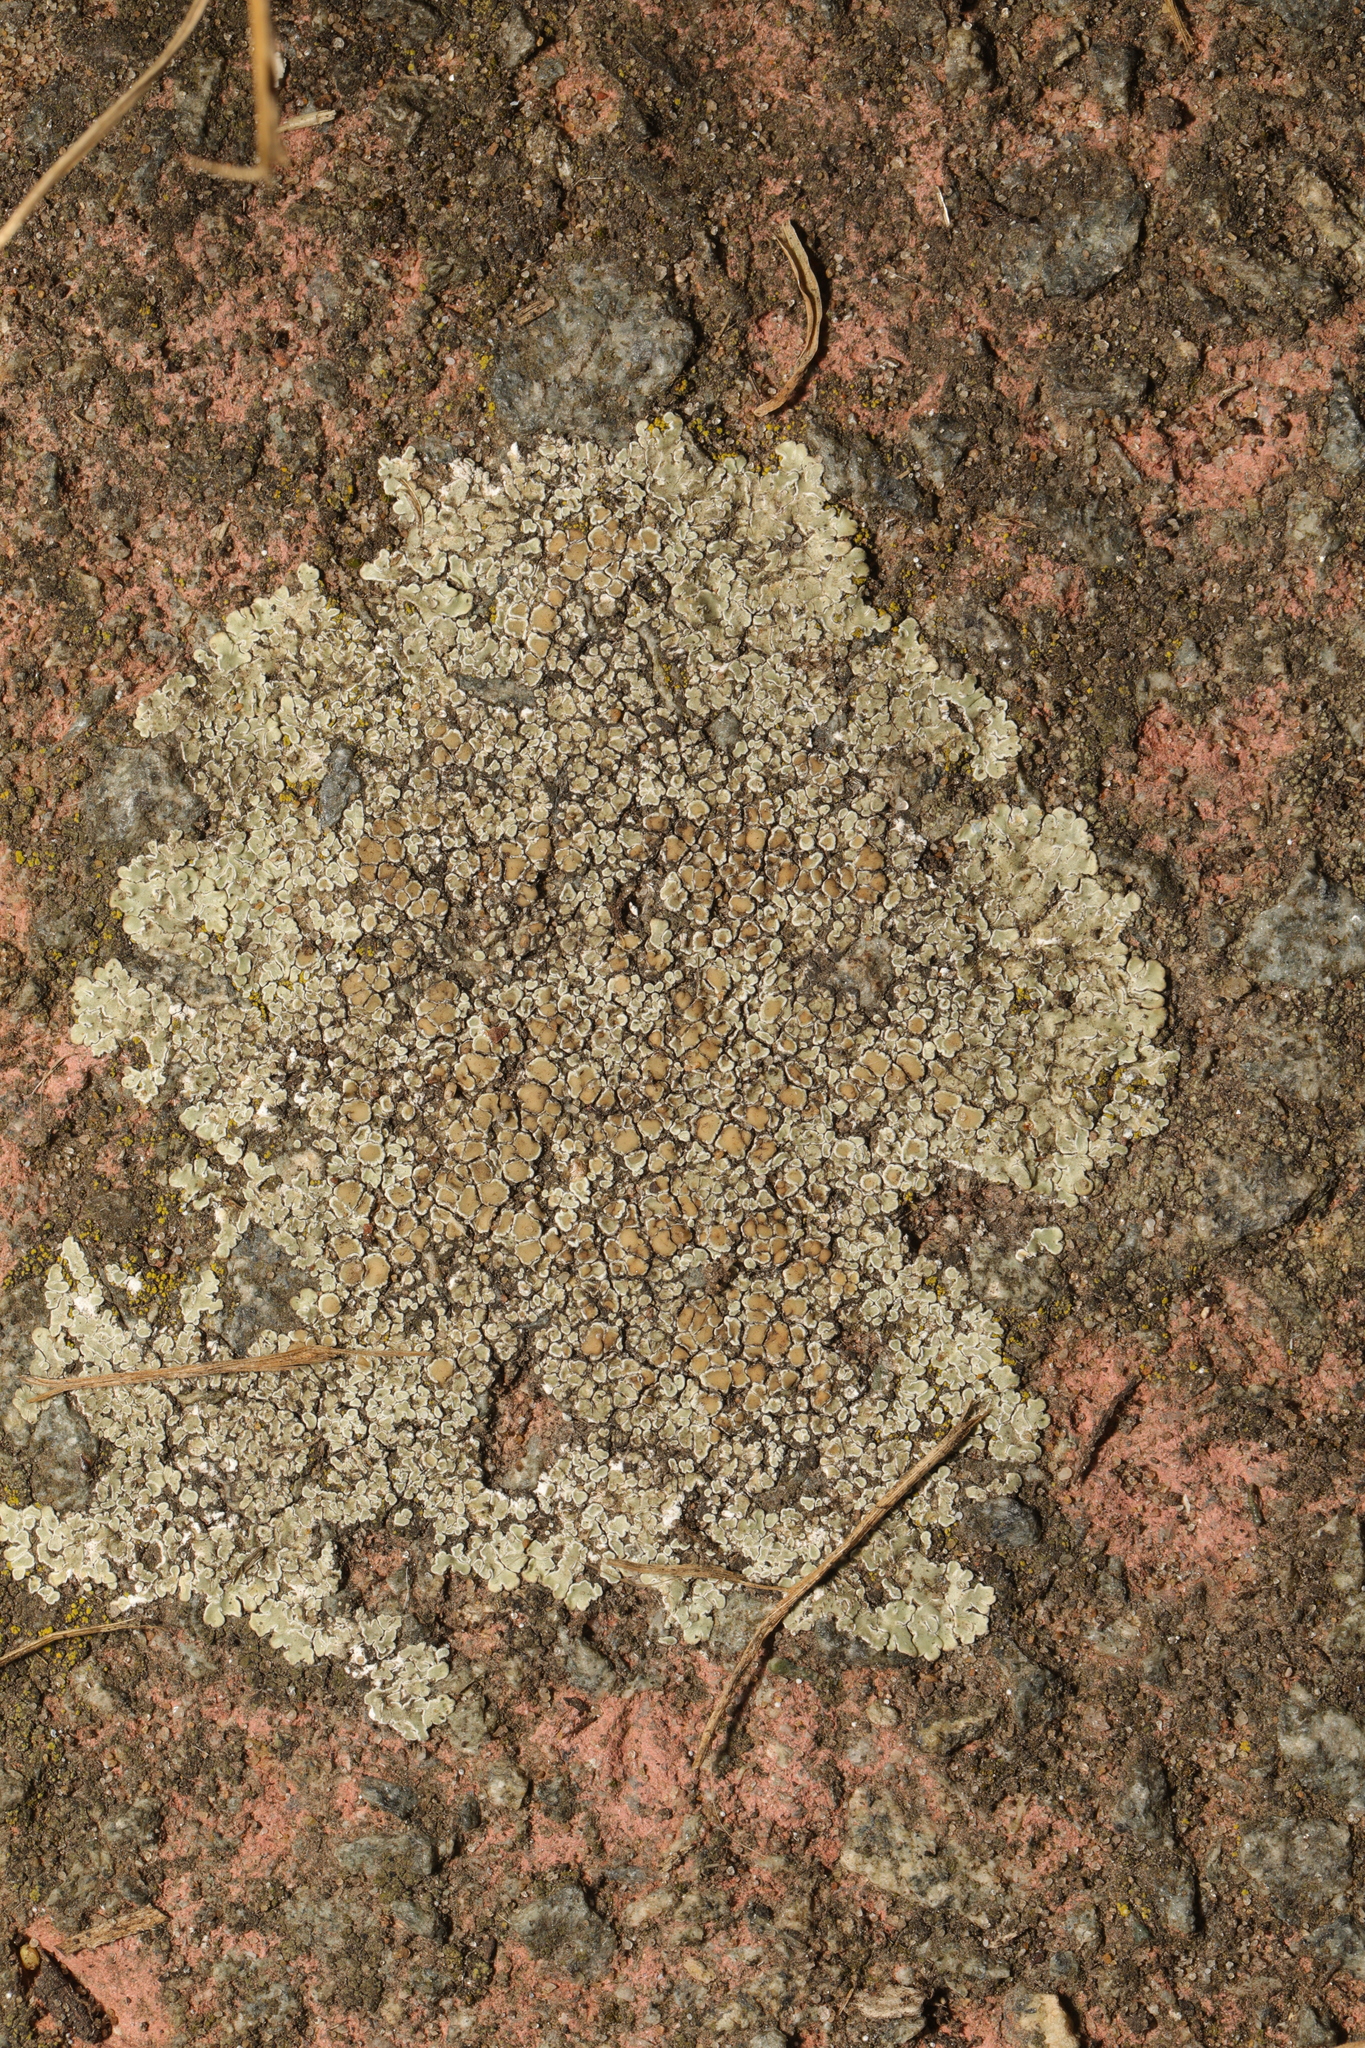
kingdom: Fungi
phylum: Ascomycota
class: Lecanoromycetes
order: Lecanorales
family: Lecanoraceae
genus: Protoparmeliopsis
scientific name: Protoparmeliopsis muralis
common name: Stonewall rim lichen
